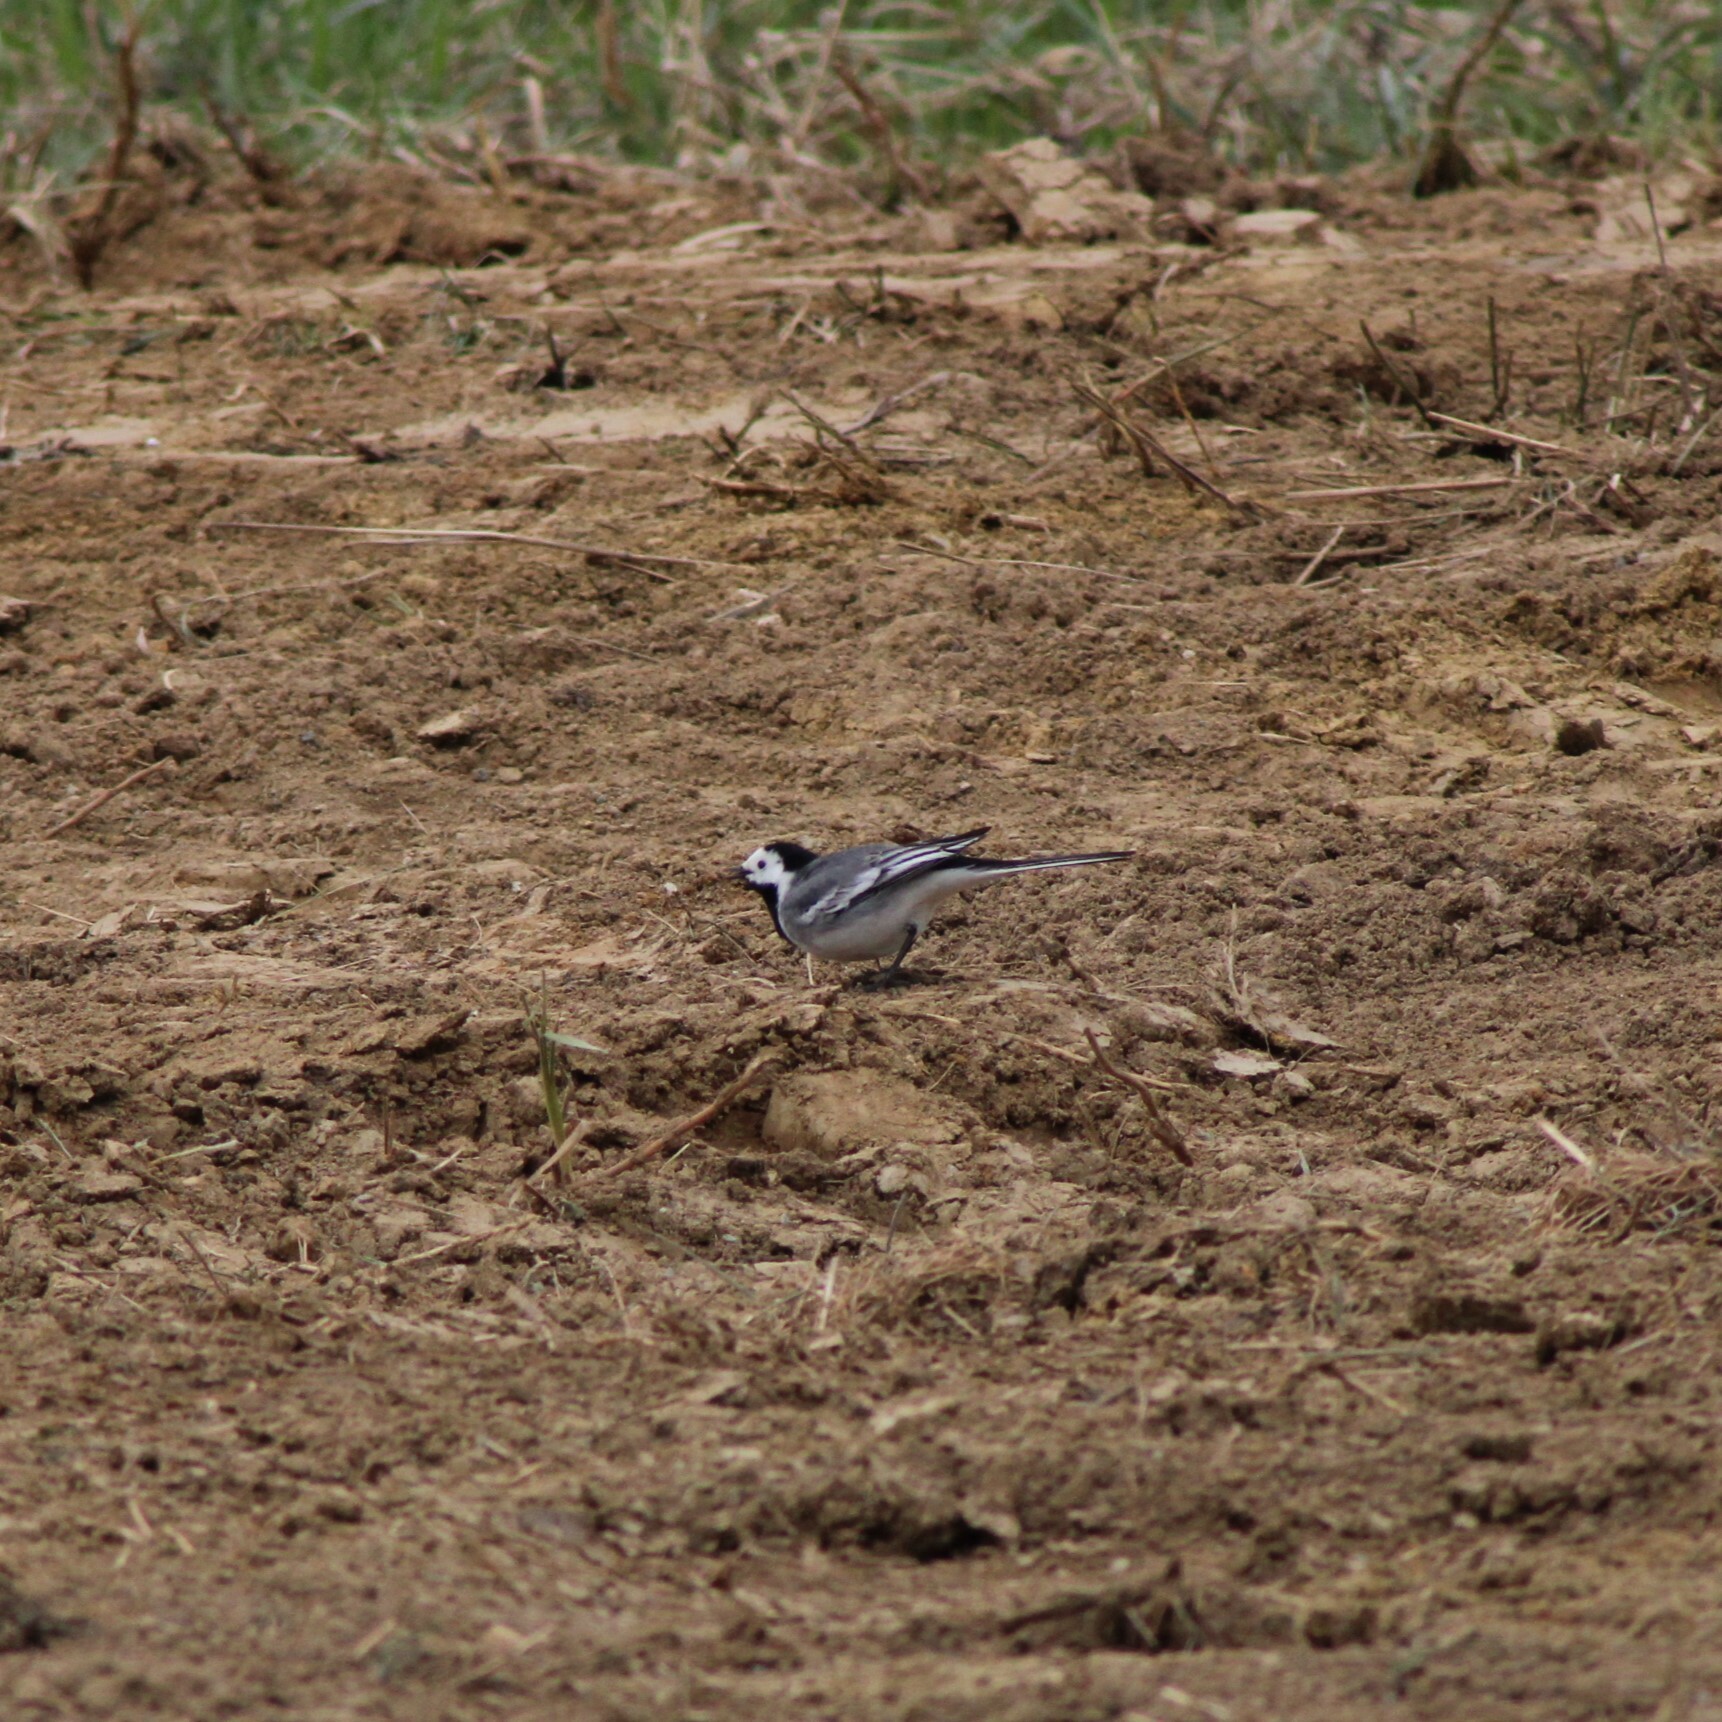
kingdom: Animalia
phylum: Chordata
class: Aves
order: Passeriformes
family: Motacillidae
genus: Motacilla
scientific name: Motacilla alba
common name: White wagtail
